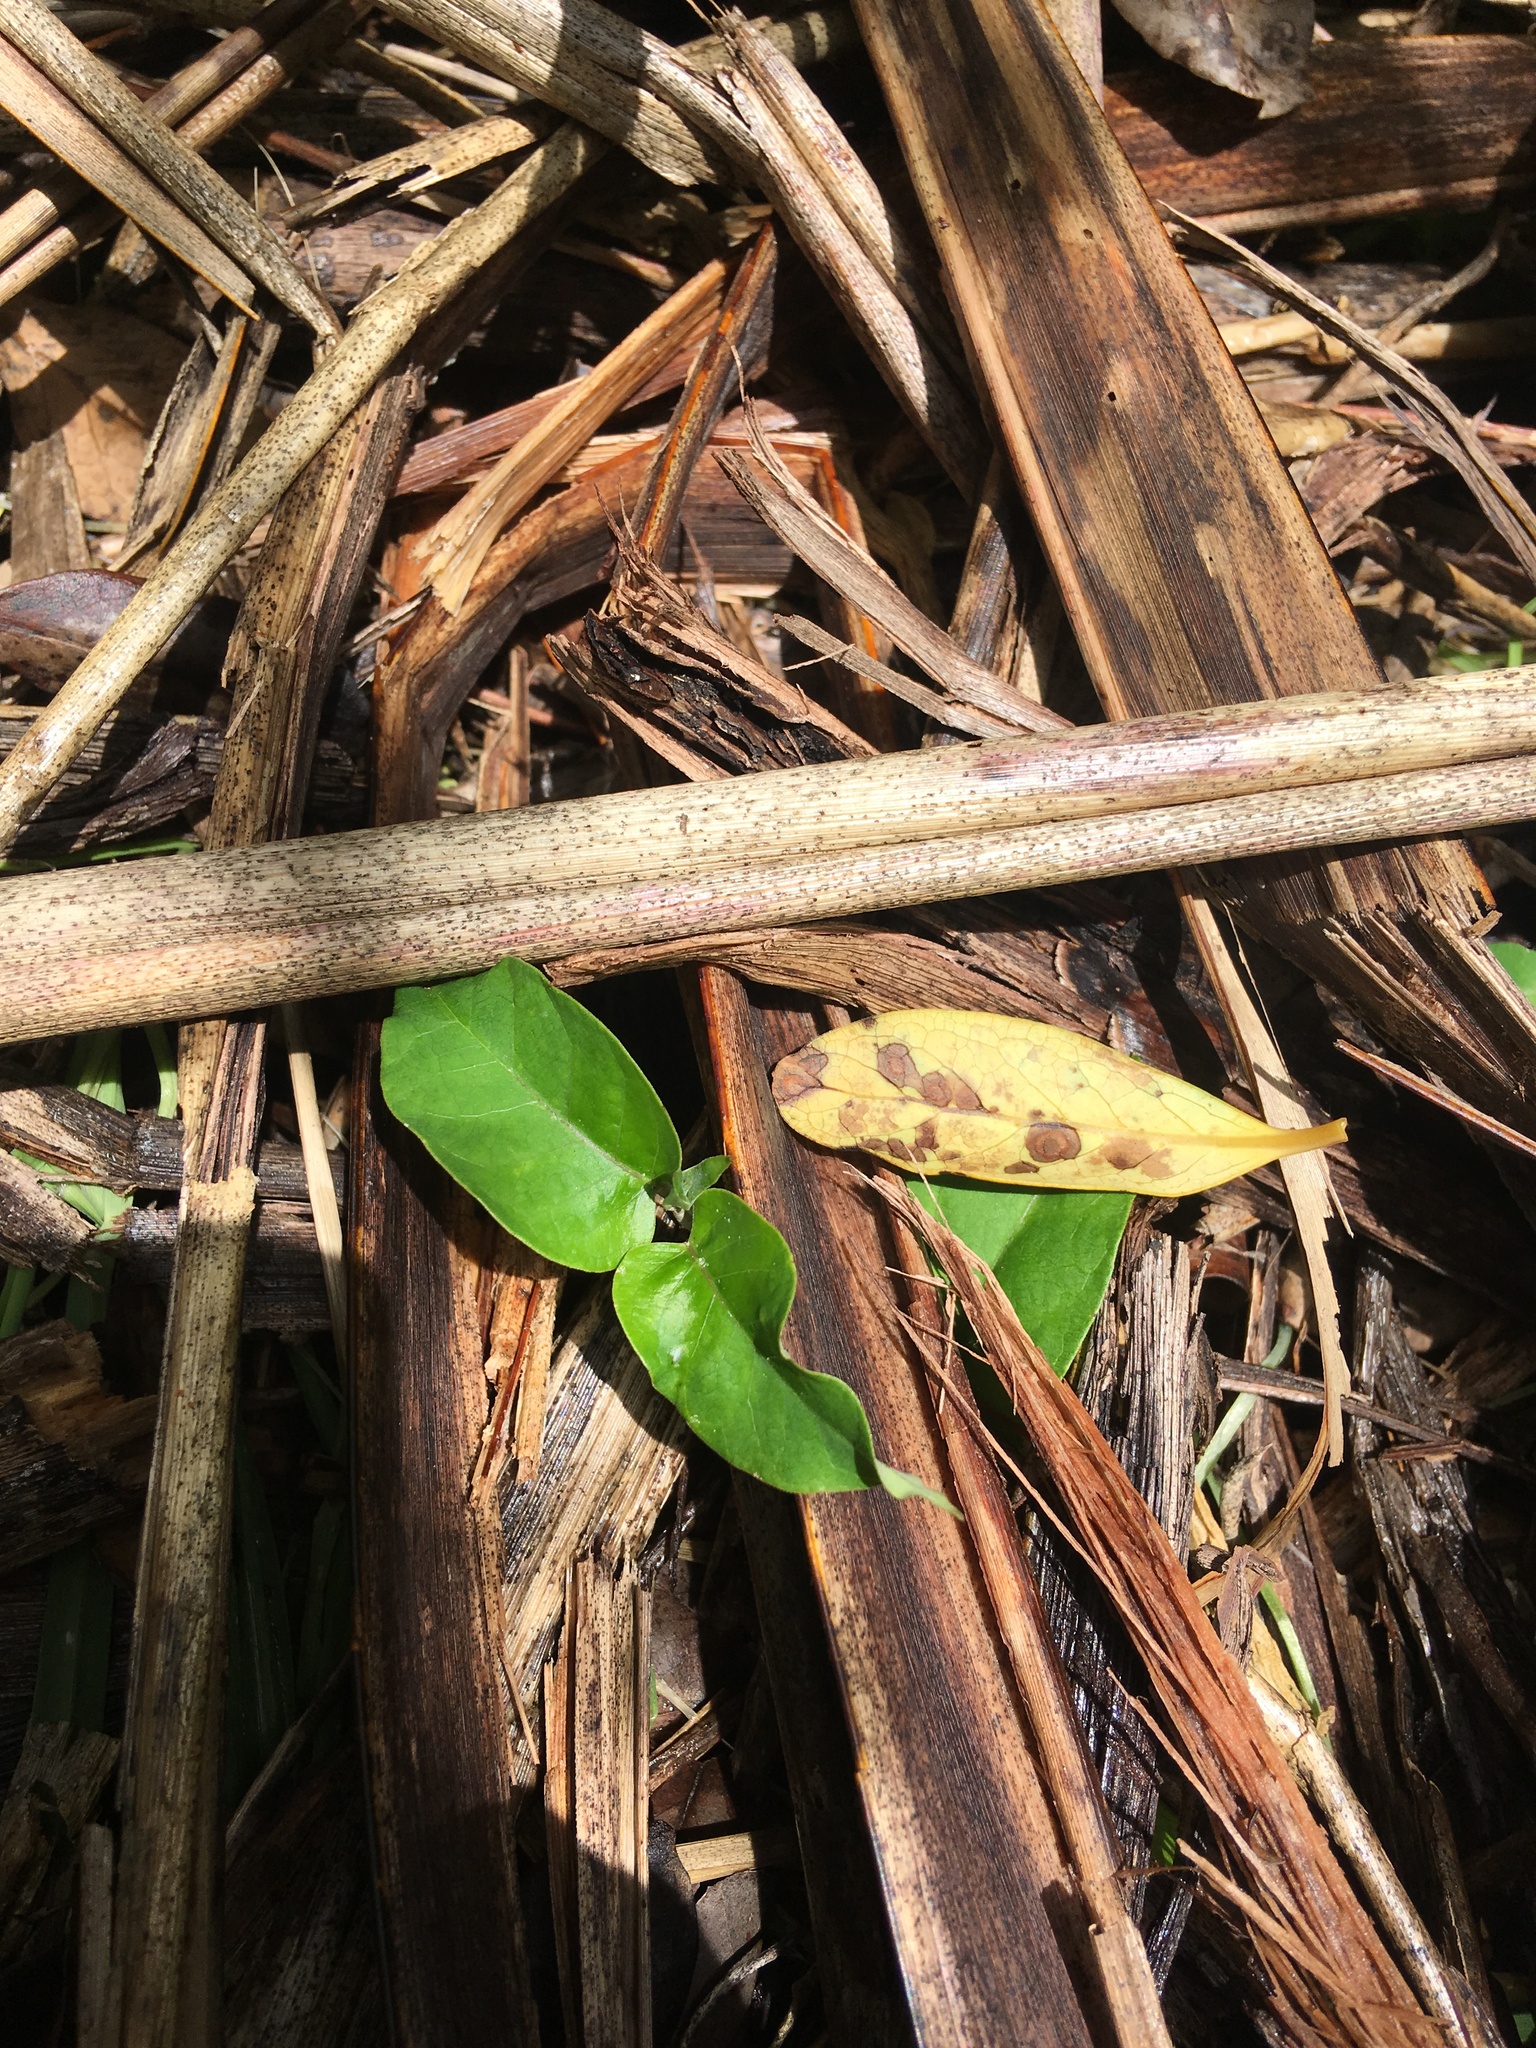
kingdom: Plantae
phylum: Tracheophyta
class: Magnoliopsida
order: Gentianales
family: Apocynaceae
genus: Araujia
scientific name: Araujia sericifera
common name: White bladderflower
